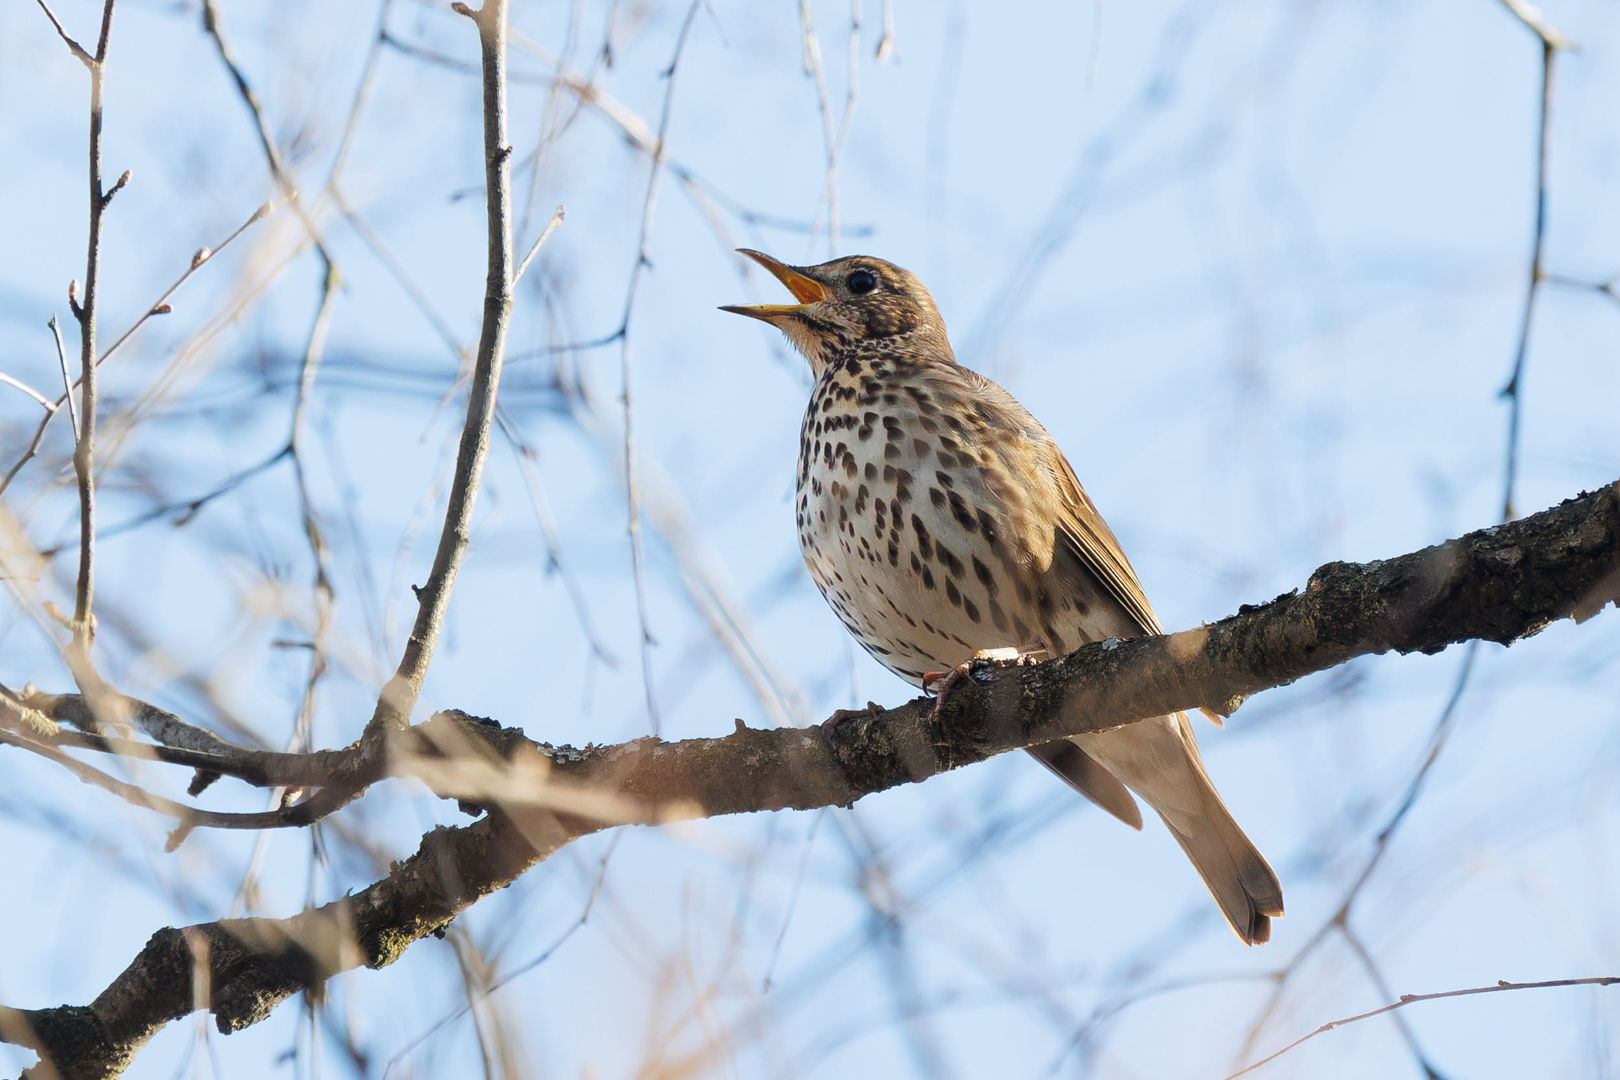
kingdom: Animalia
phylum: Chordata
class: Aves
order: Passeriformes
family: Turdidae
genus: Turdus
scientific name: Turdus philomelos
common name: Song thrush
